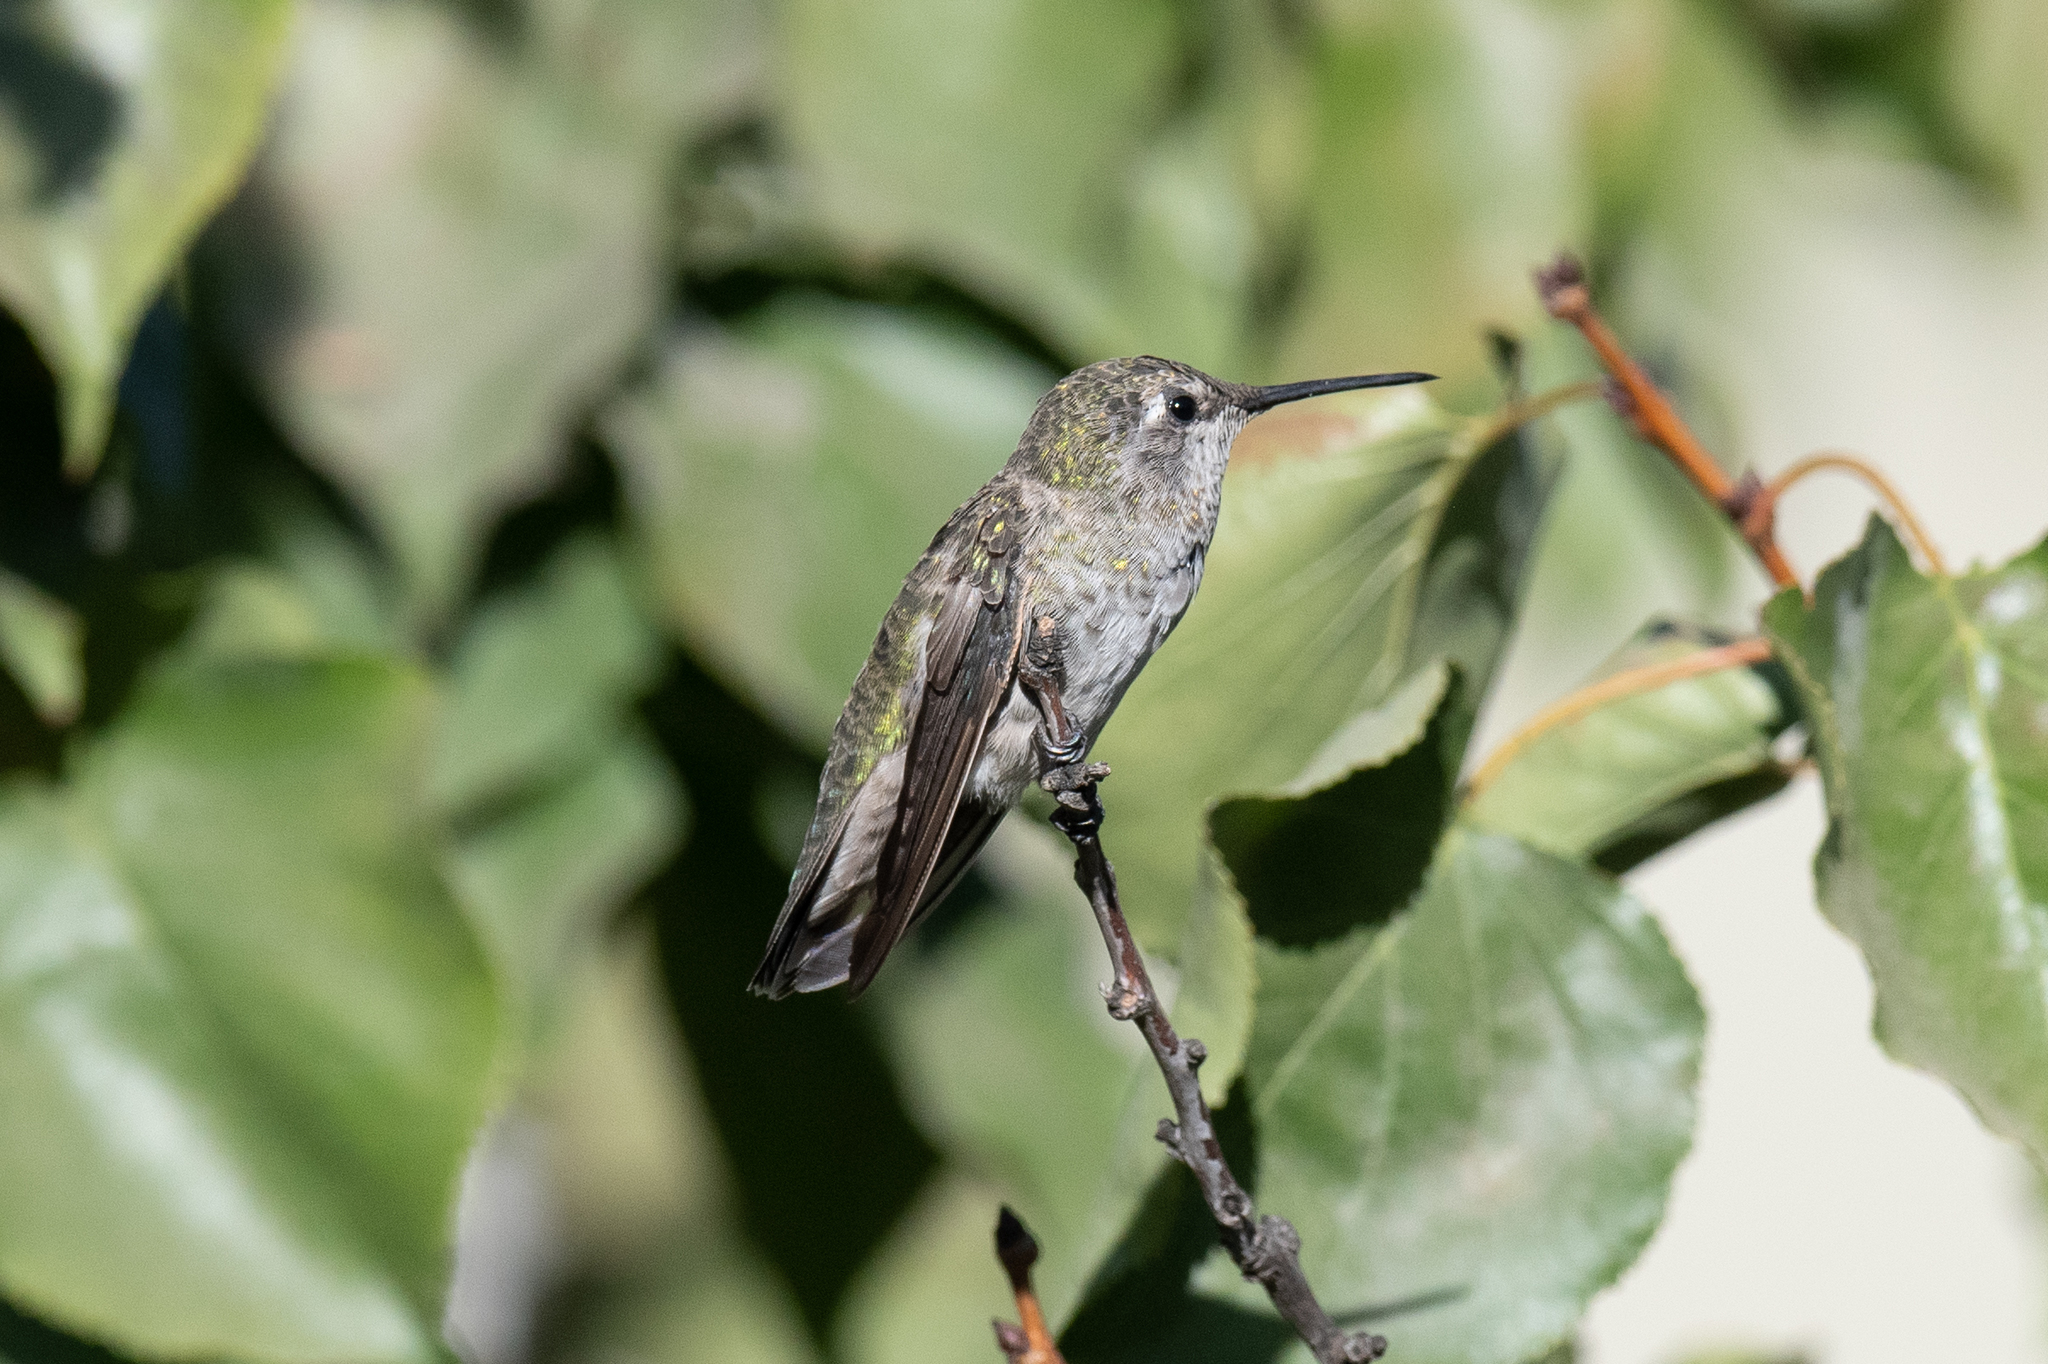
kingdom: Animalia
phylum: Chordata
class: Aves
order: Apodiformes
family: Trochilidae
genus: Calypte
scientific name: Calypte anna
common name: Anna's hummingbird
